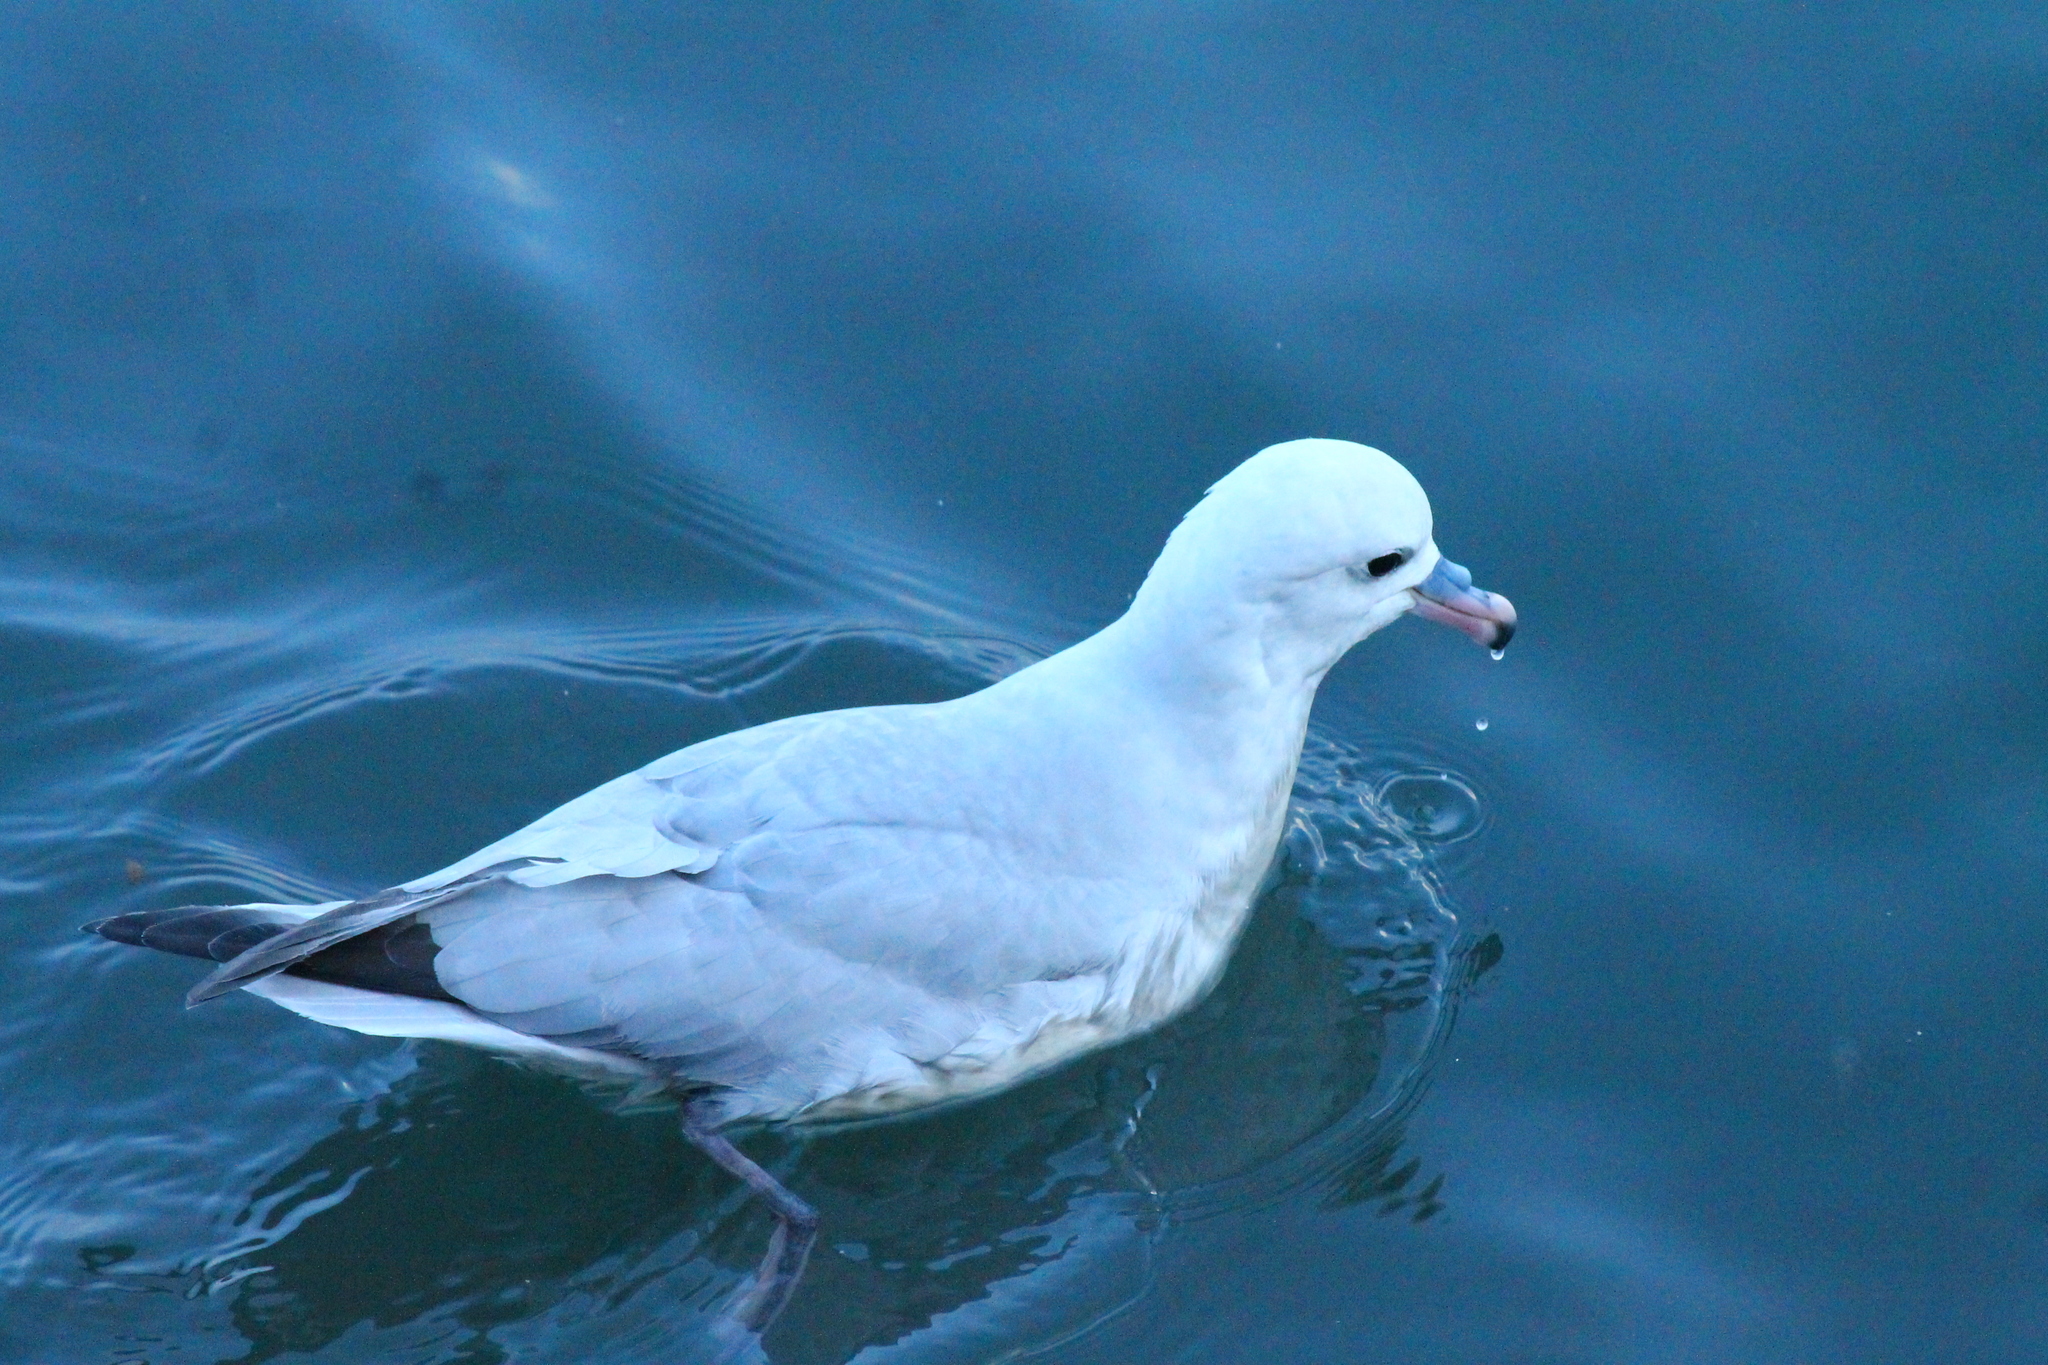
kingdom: Animalia
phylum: Chordata
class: Aves
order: Procellariiformes
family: Procellariidae
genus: Fulmarus
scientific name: Fulmarus glacialoides
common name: Southern fulmar
